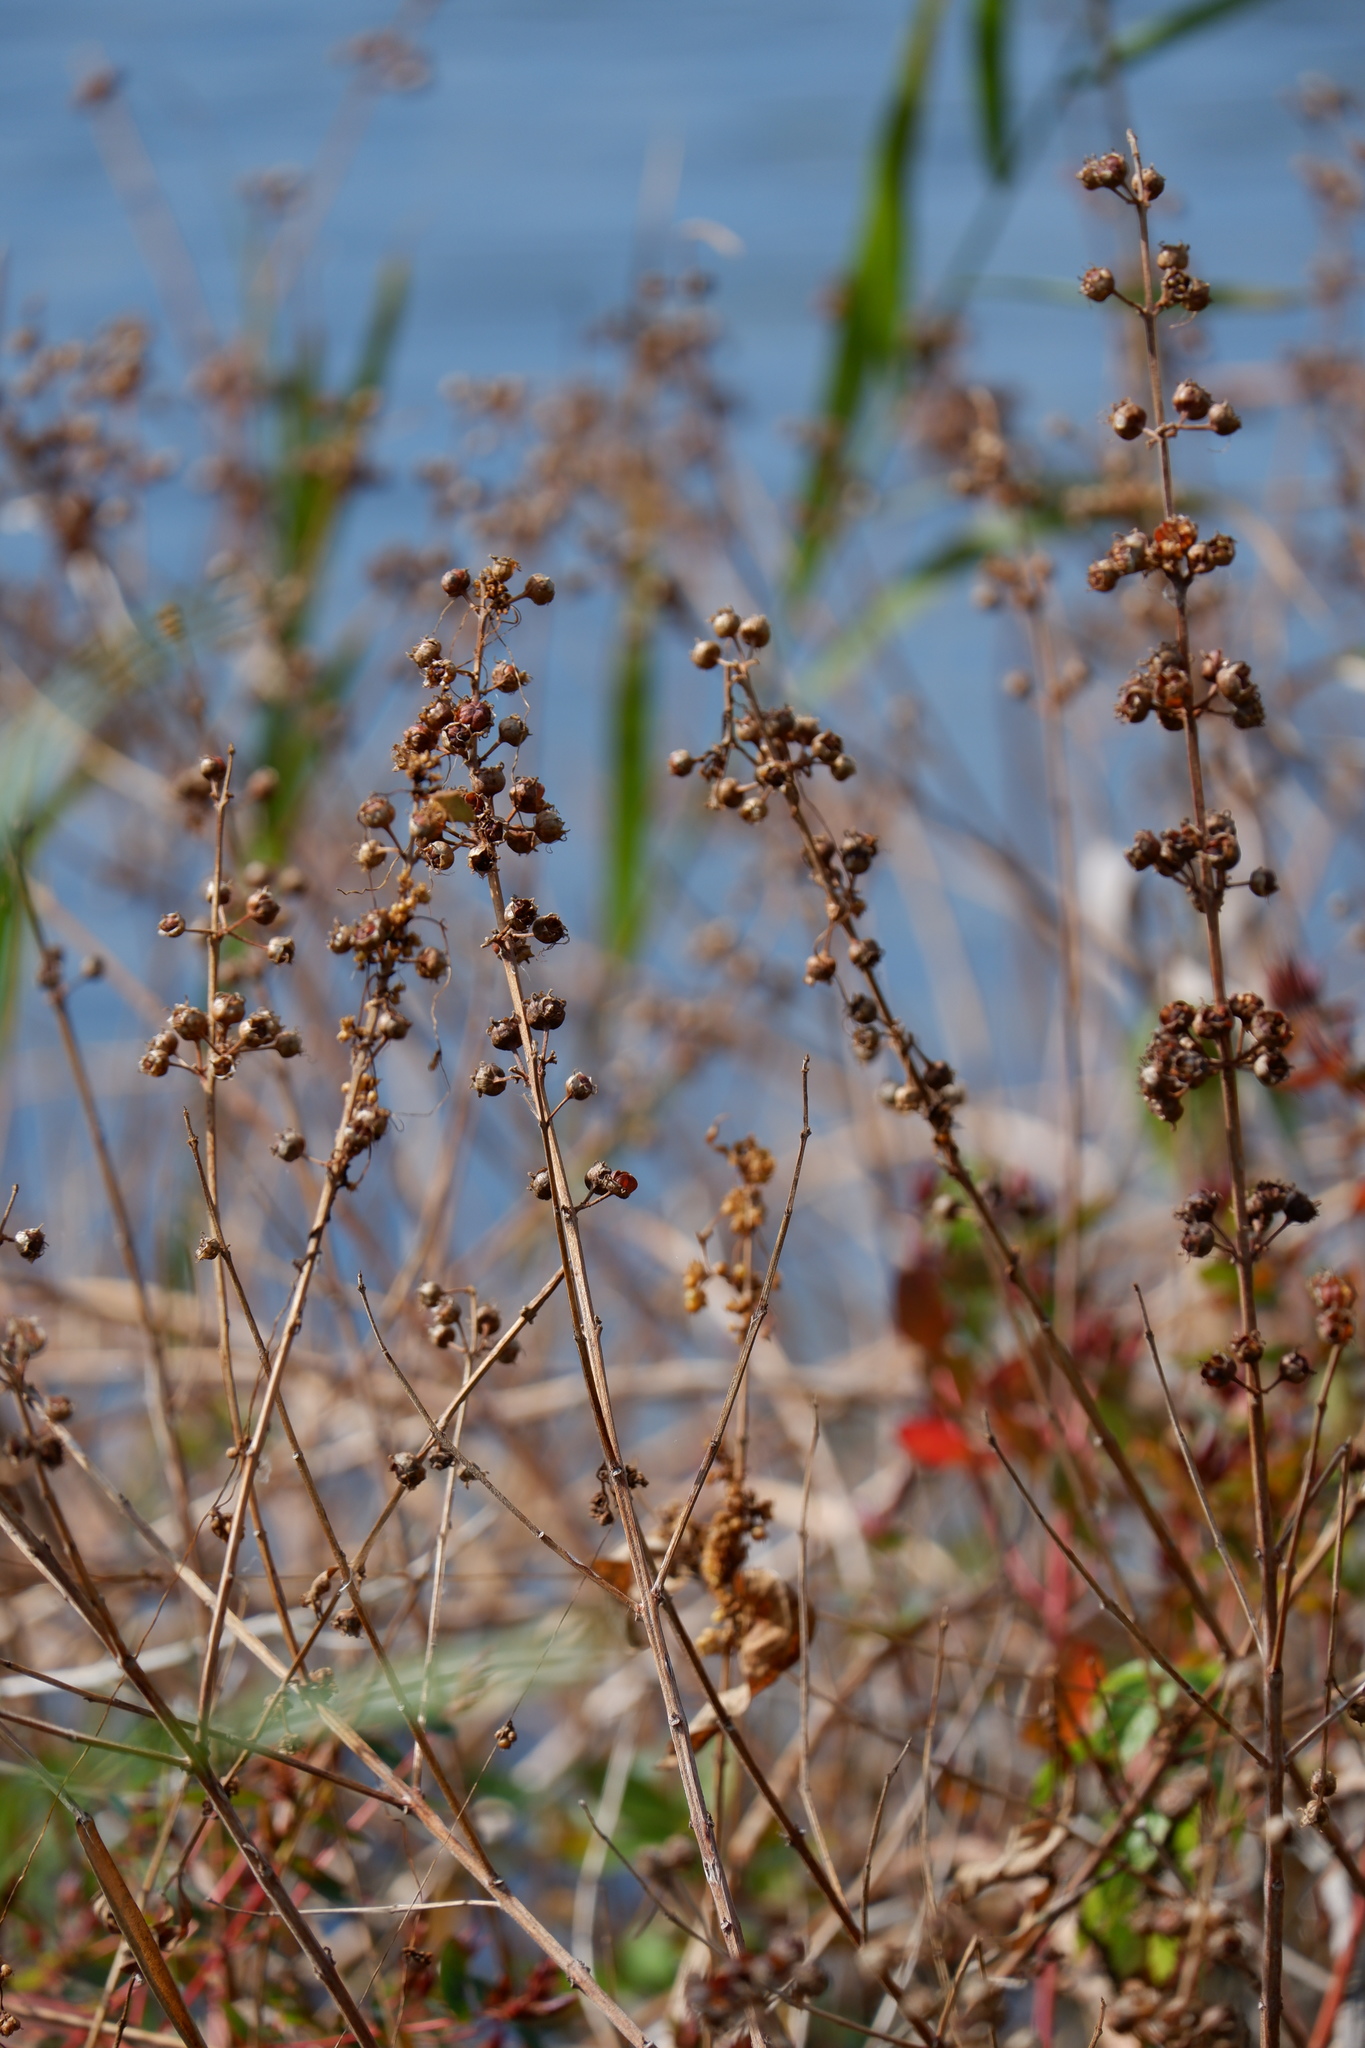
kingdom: Plantae
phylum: Tracheophyta
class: Magnoliopsida
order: Myrtales
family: Lythraceae
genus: Decodon
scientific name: Decodon verticillatus
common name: Hairy swamp loosestrife
